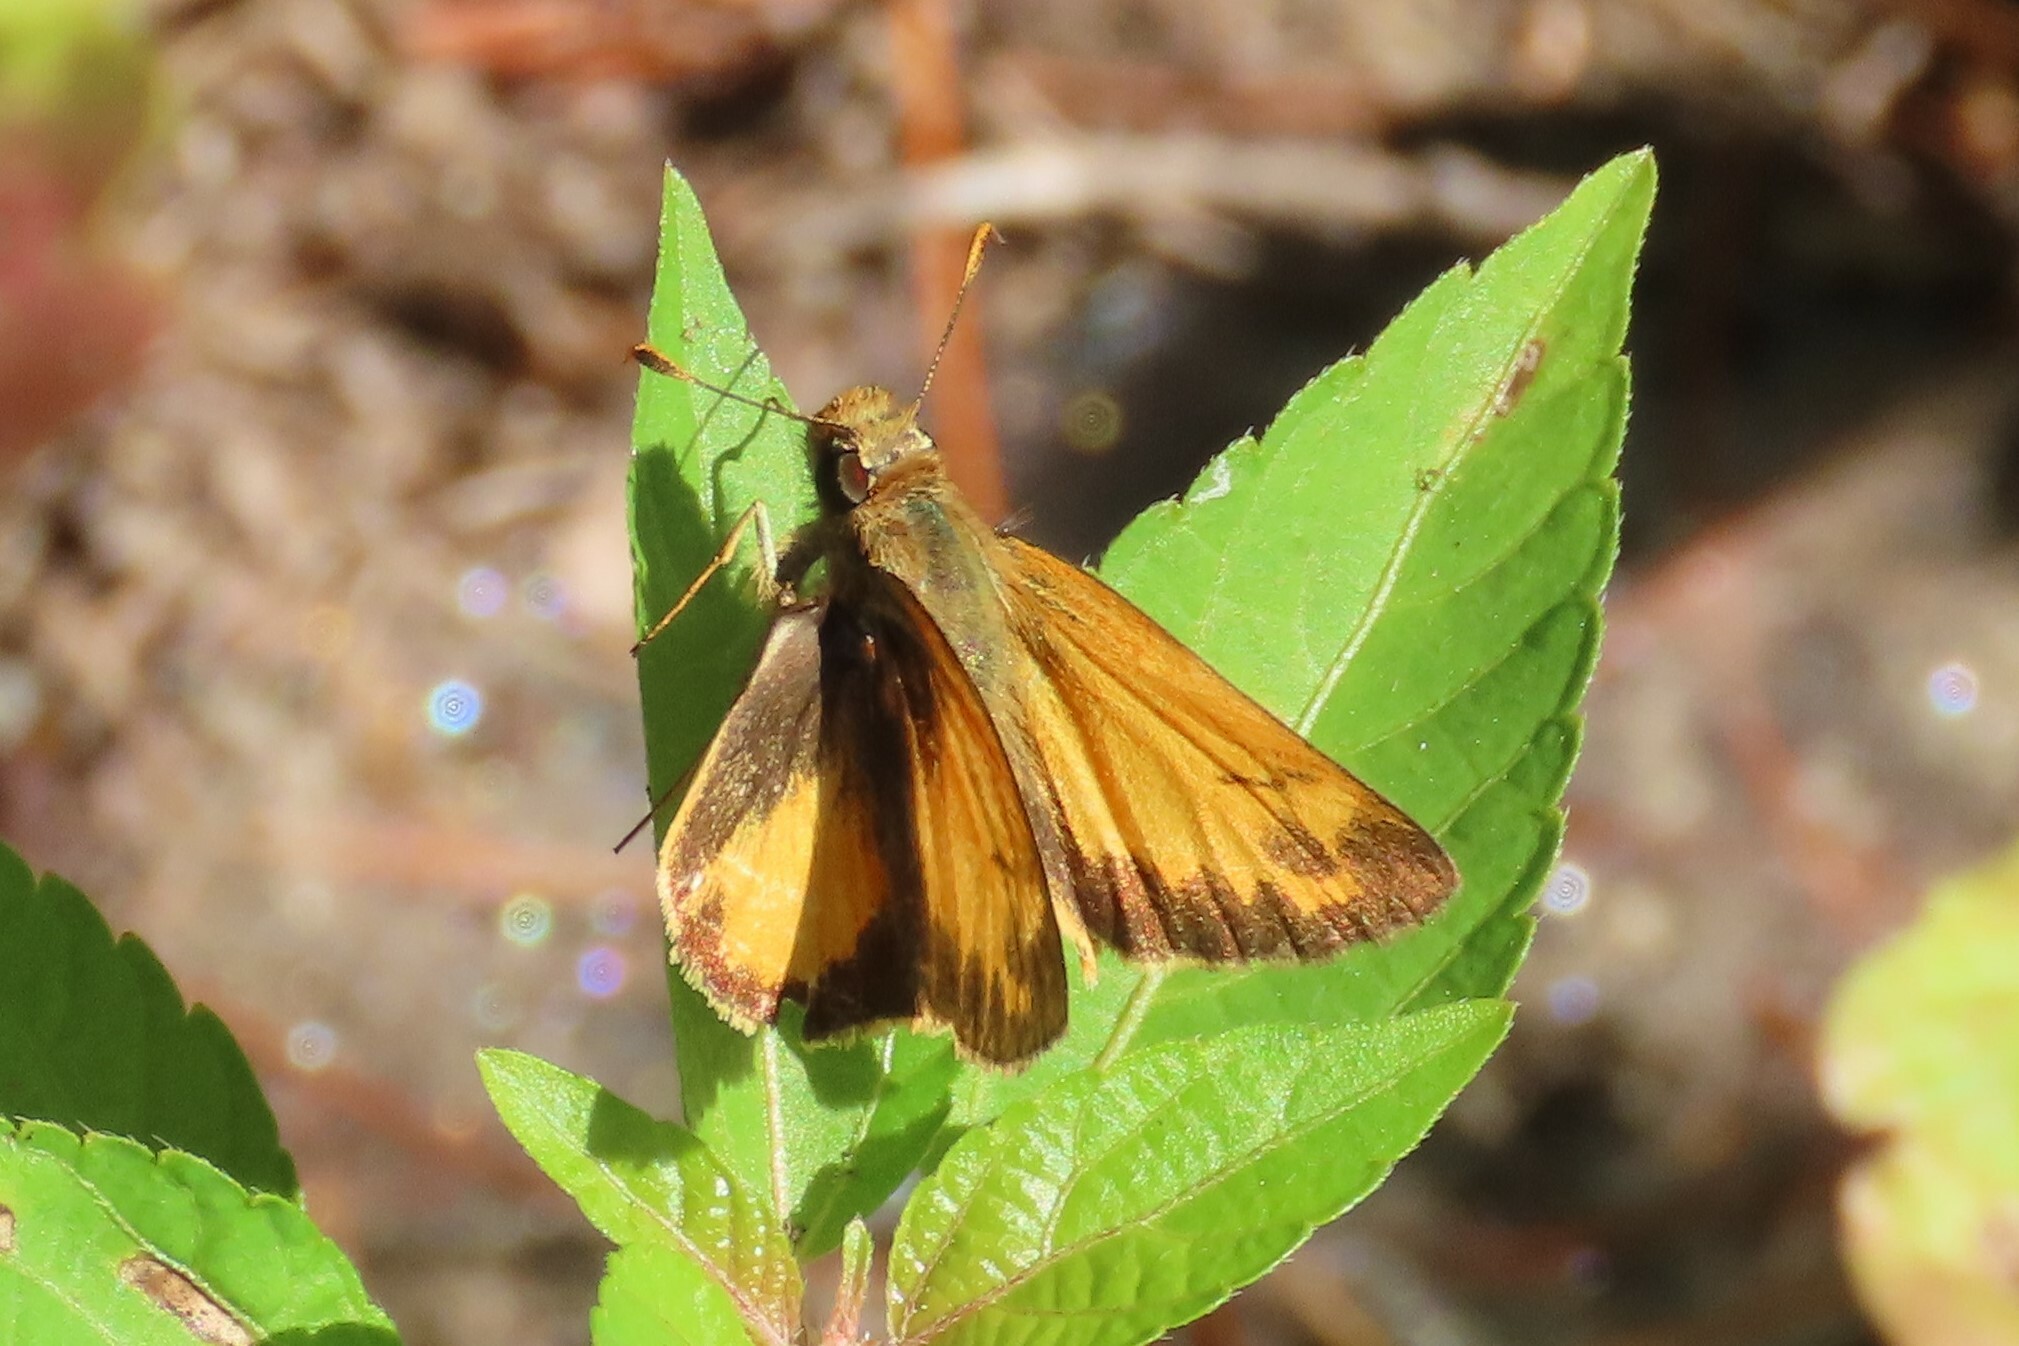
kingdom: Animalia
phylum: Arthropoda
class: Insecta
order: Lepidoptera
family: Hesperiidae
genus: Lon
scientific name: Lon zabulon
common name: Zabulon skipper
